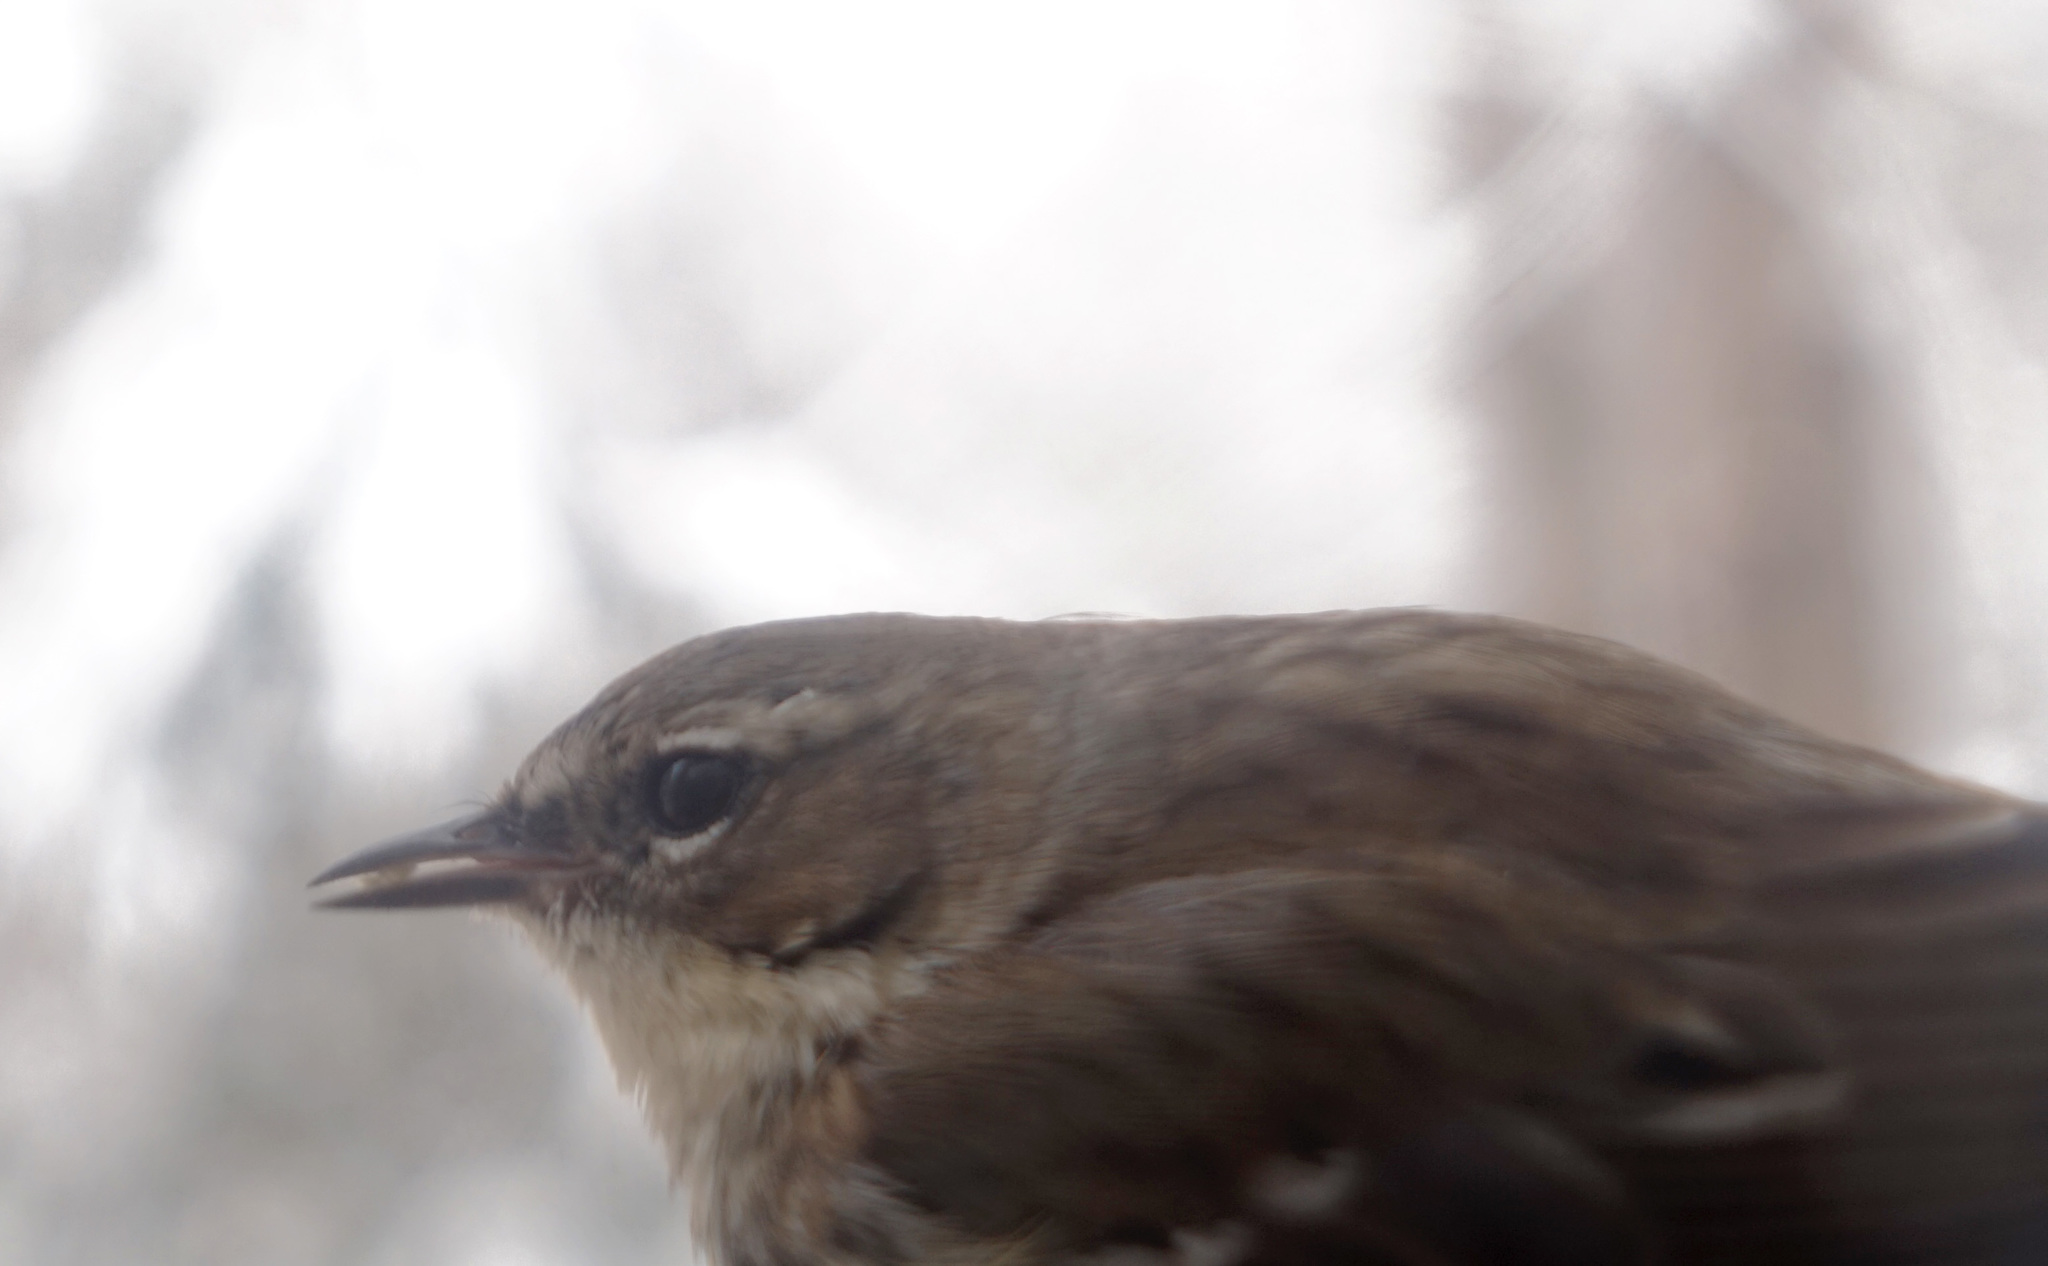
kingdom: Animalia
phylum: Chordata
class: Aves
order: Passeriformes
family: Parulidae
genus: Setophaga
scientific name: Setophaga coronata
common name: Myrtle warbler
